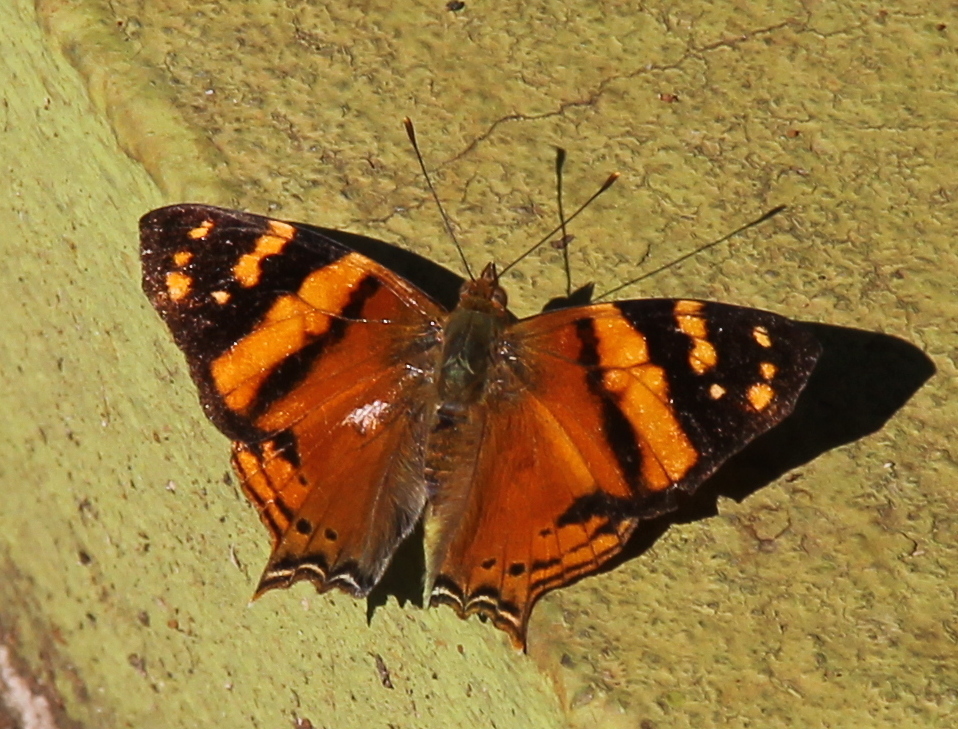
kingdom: Animalia
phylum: Arthropoda
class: Insecta
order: Lepidoptera
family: Nymphalidae
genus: Hypanartia
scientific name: Hypanartia lethe
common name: Orange mapwing
